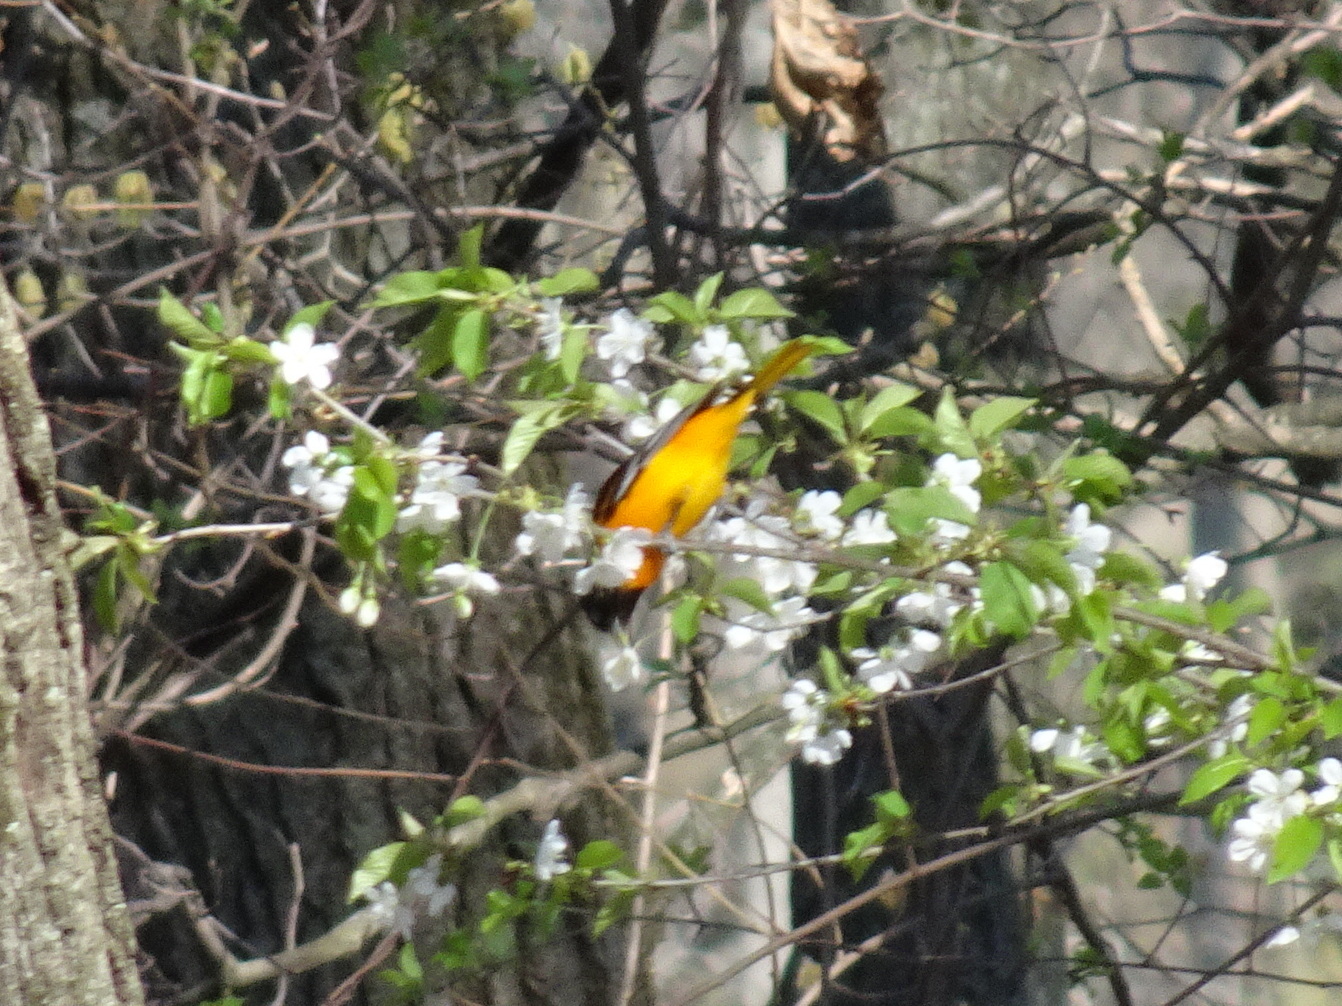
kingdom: Animalia
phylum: Chordata
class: Aves
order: Passeriformes
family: Icteridae
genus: Icterus
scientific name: Icterus galbula
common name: Baltimore oriole
